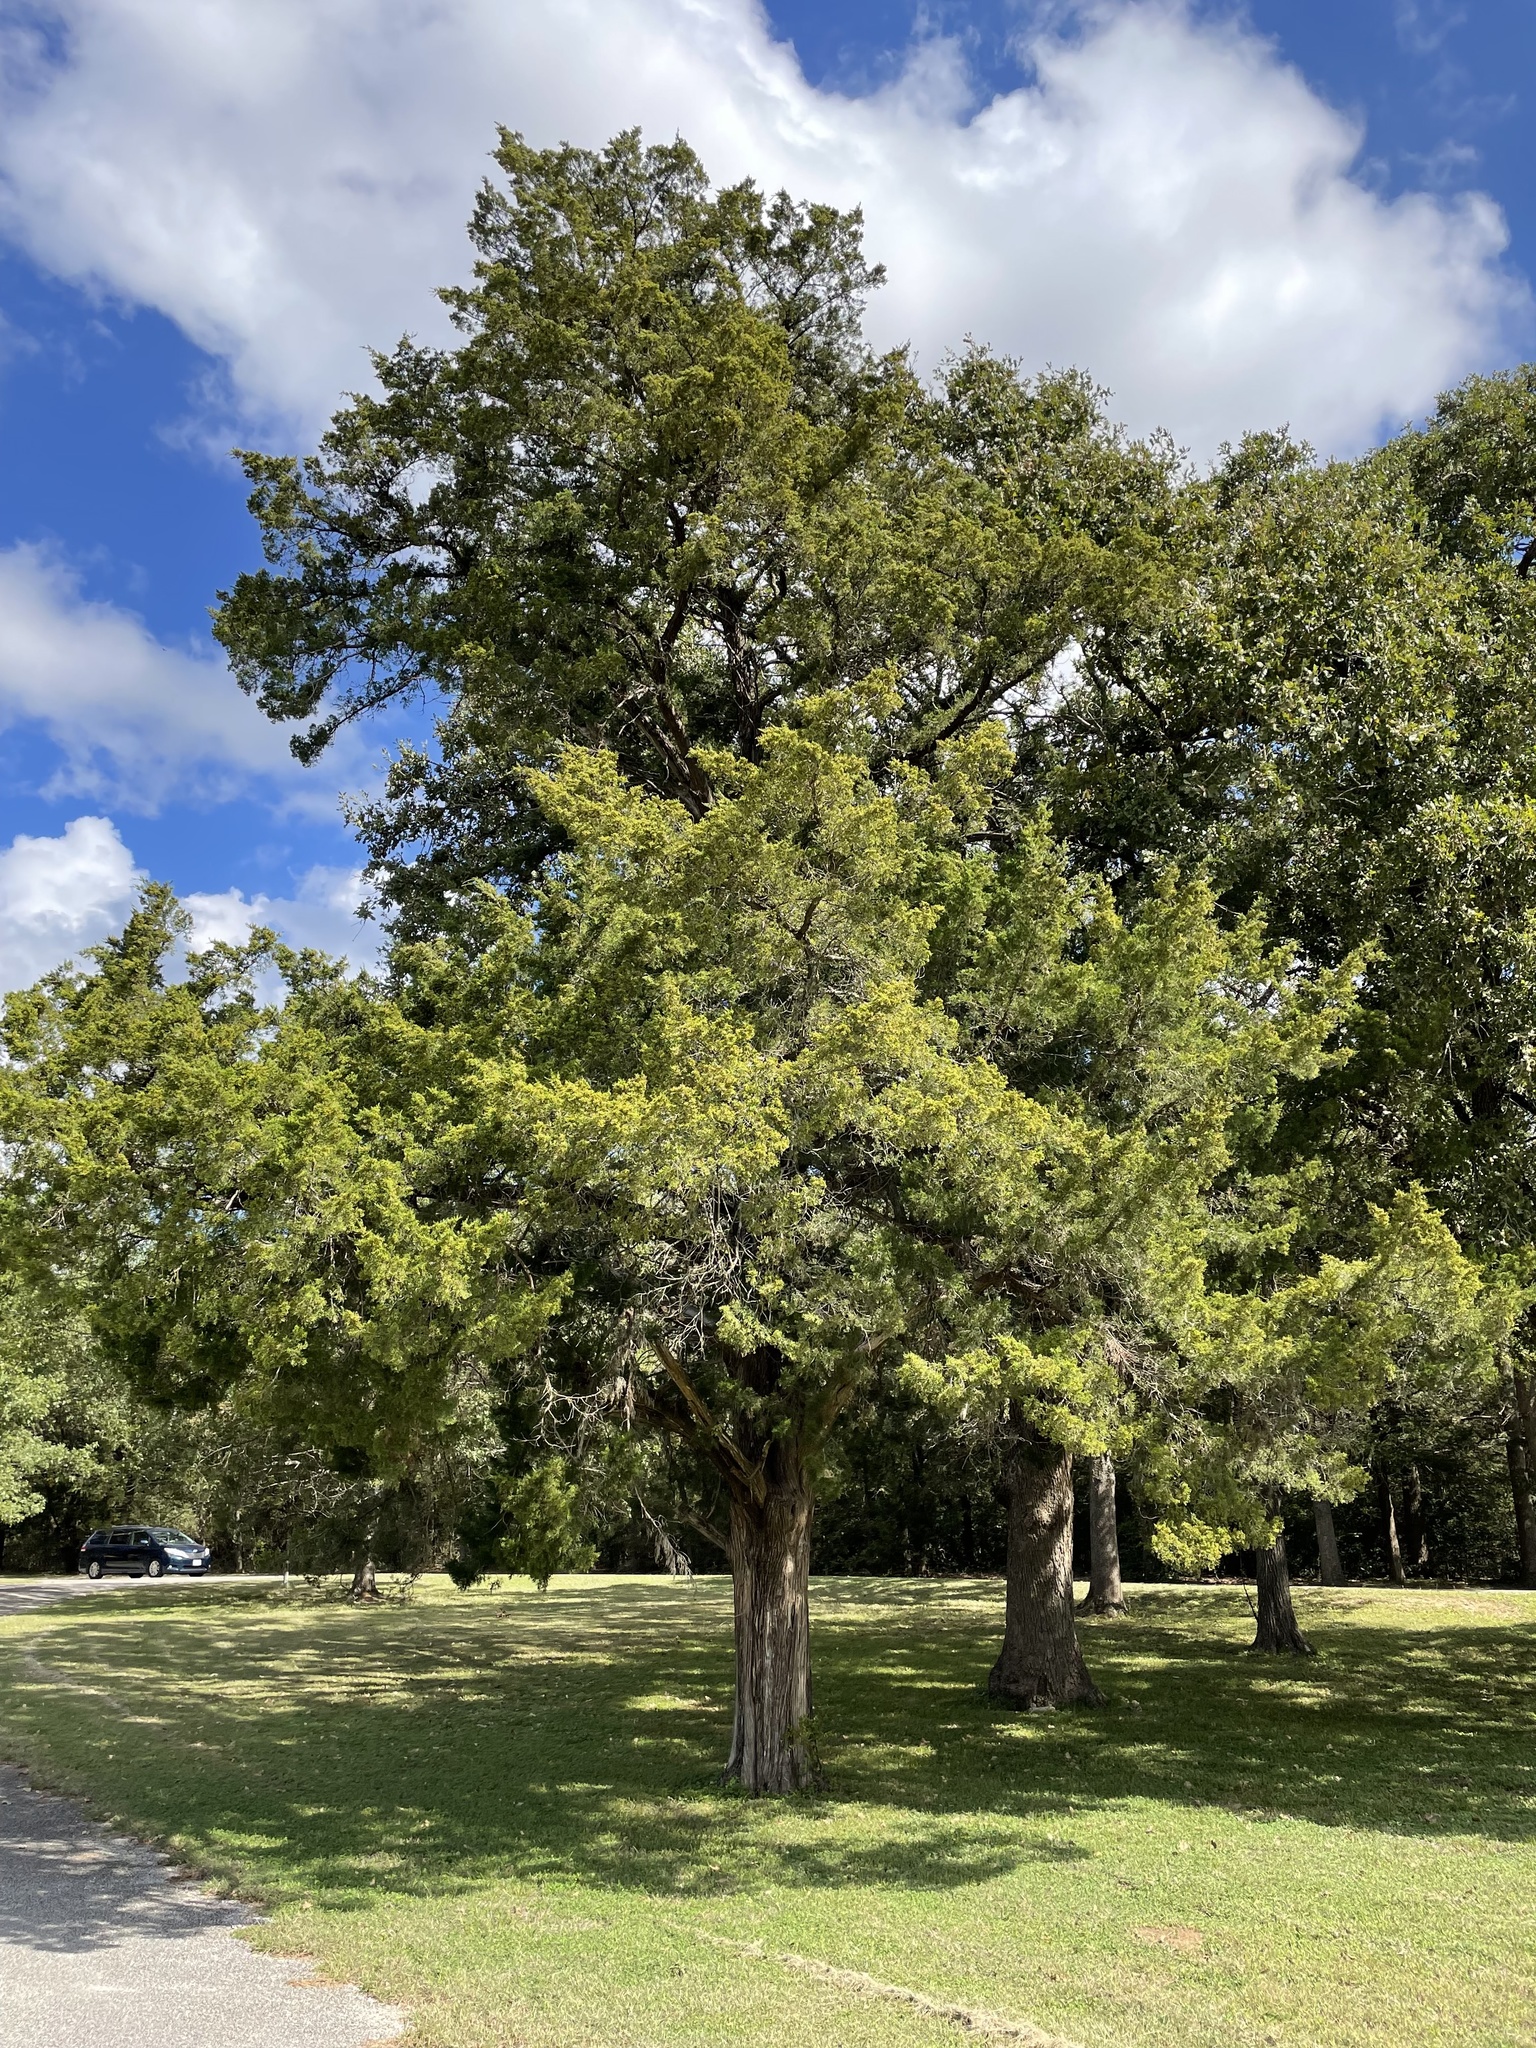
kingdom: Plantae
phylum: Tracheophyta
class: Pinopsida
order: Pinales
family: Cupressaceae
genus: Juniperus
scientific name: Juniperus virginiana
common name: Red juniper
